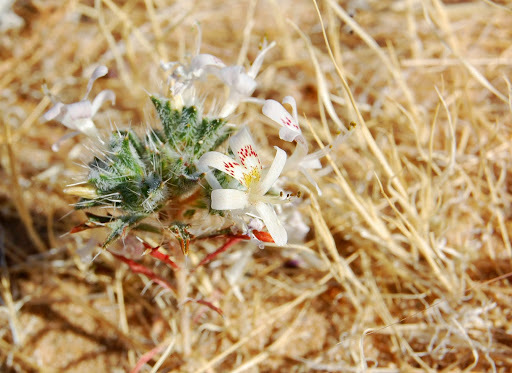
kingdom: Plantae
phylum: Tracheophyta
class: Magnoliopsida
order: Ericales
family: Polemoniaceae
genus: Loeseliastrum
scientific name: Loeseliastrum matthewsii
